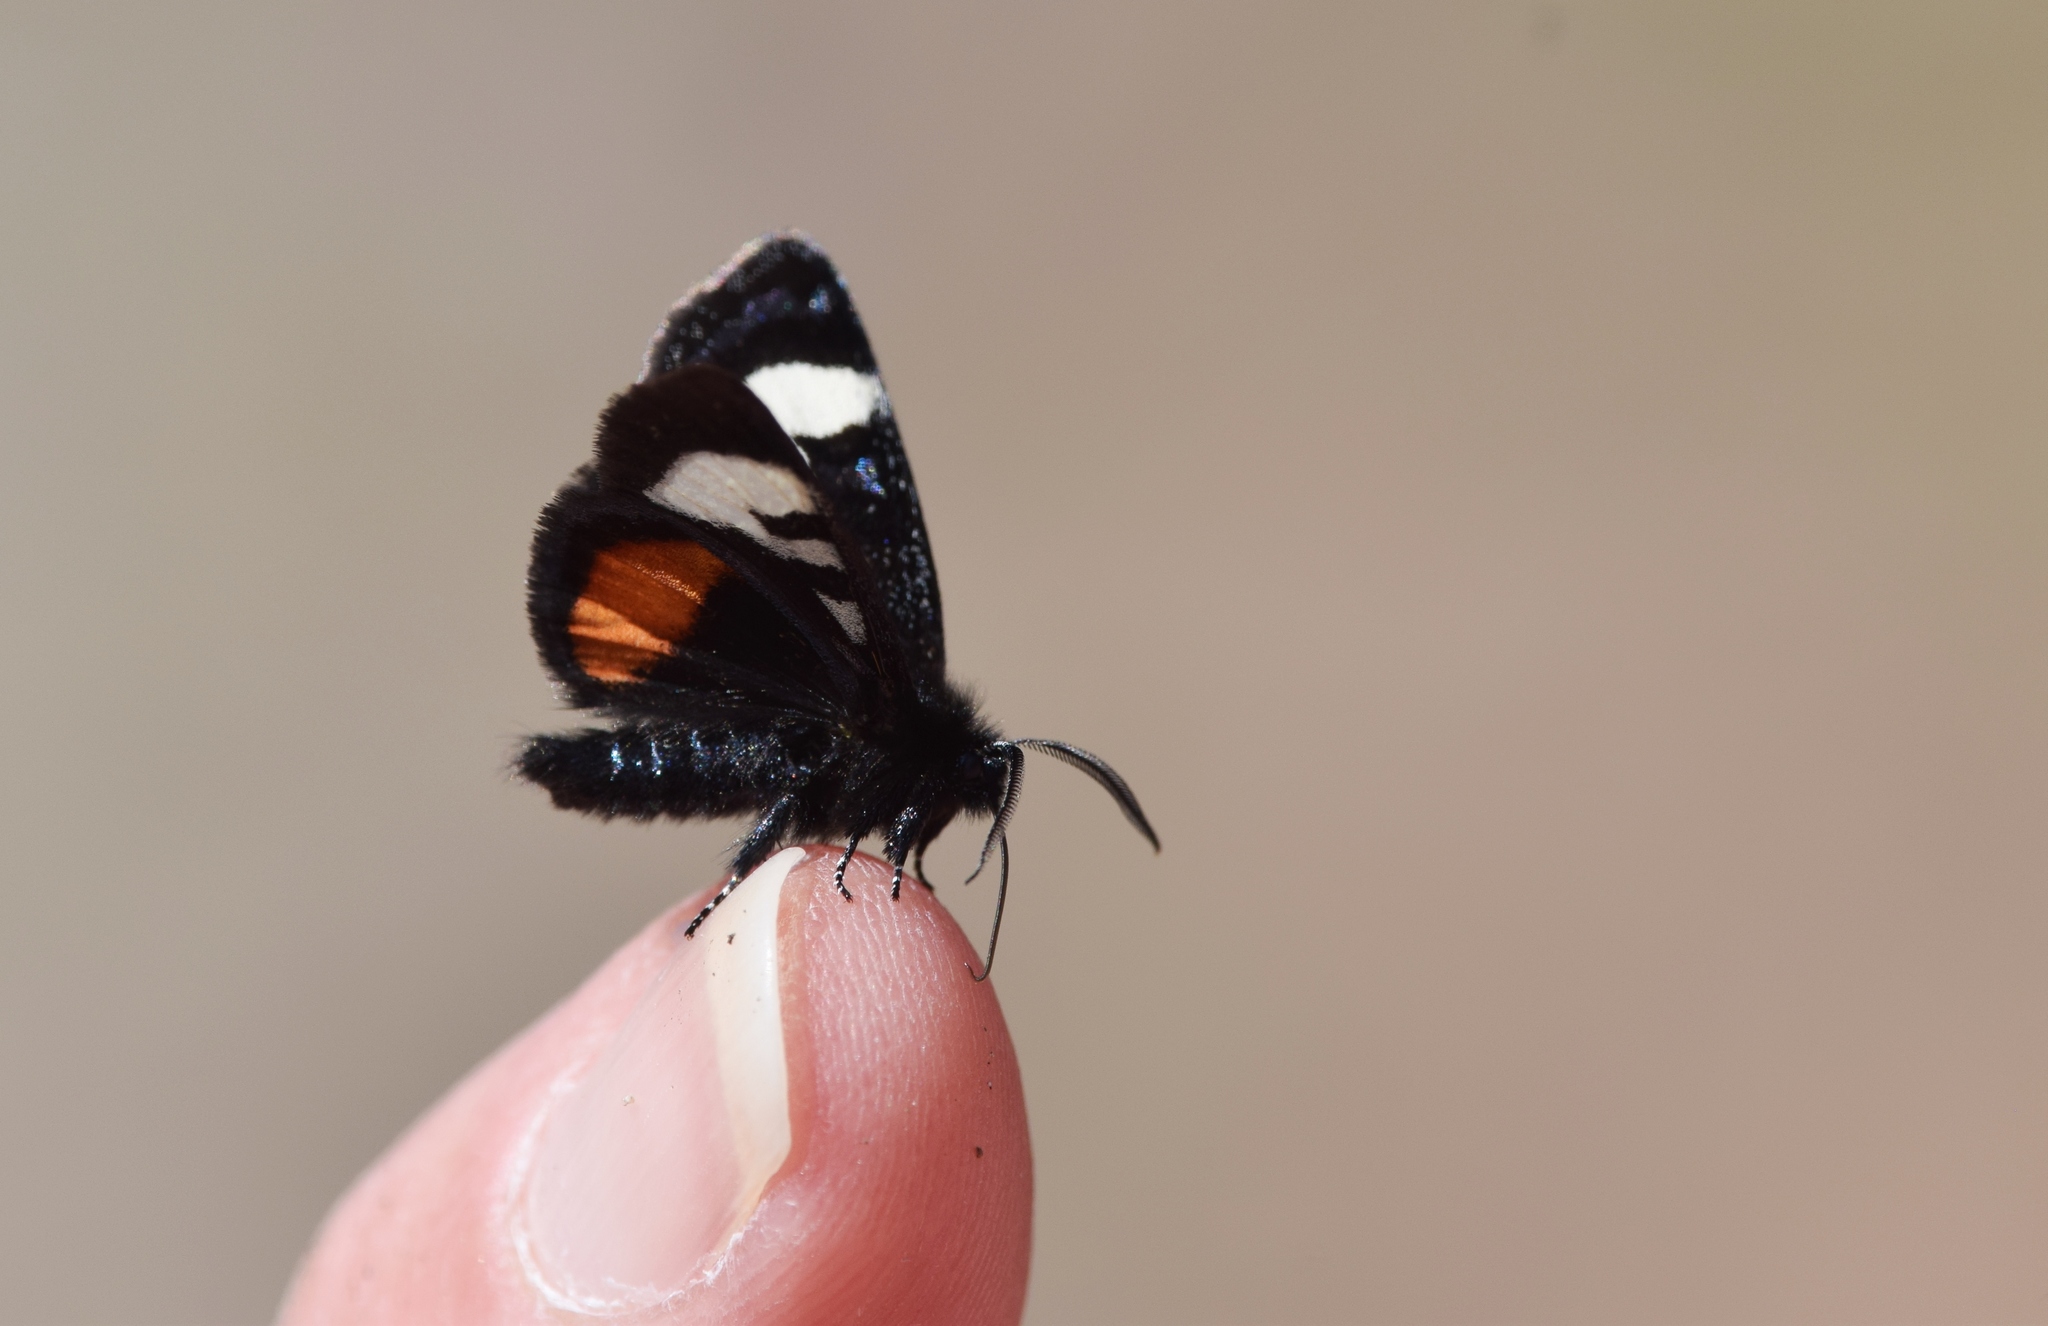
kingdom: Animalia
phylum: Arthropoda
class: Insecta
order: Lepidoptera
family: Noctuidae
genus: Psychomorpha
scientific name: Psychomorpha epimenis
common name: Grapevine epimenis moth
